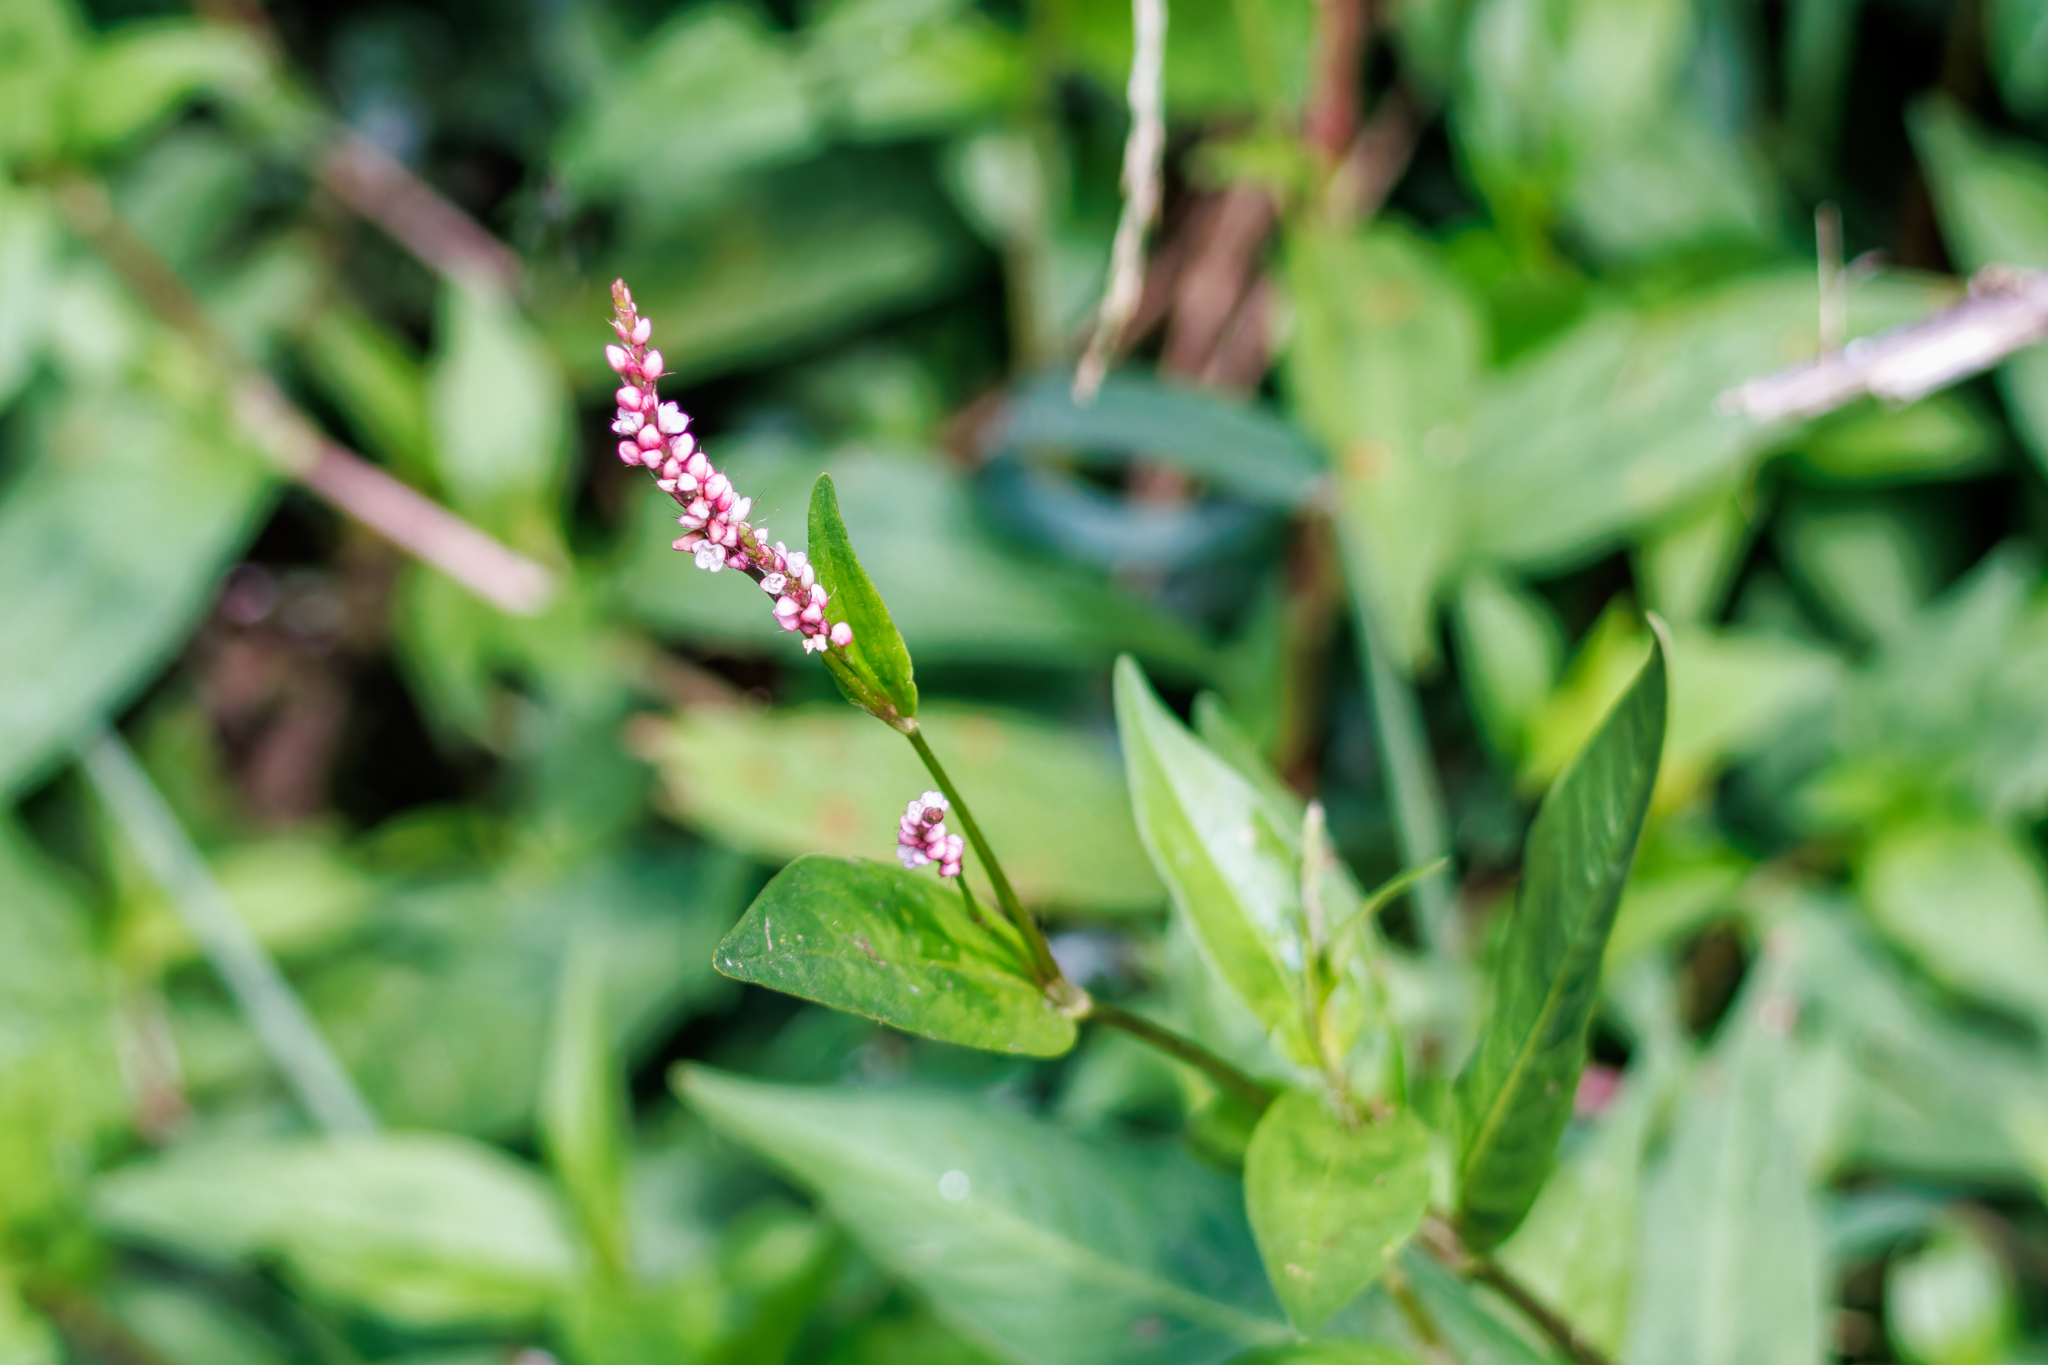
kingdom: Plantae
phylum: Tracheophyta
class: Magnoliopsida
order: Caryophyllales
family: Polygonaceae
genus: Persicaria
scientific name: Persicaria longiseta
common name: Bristly lady's-thumb
